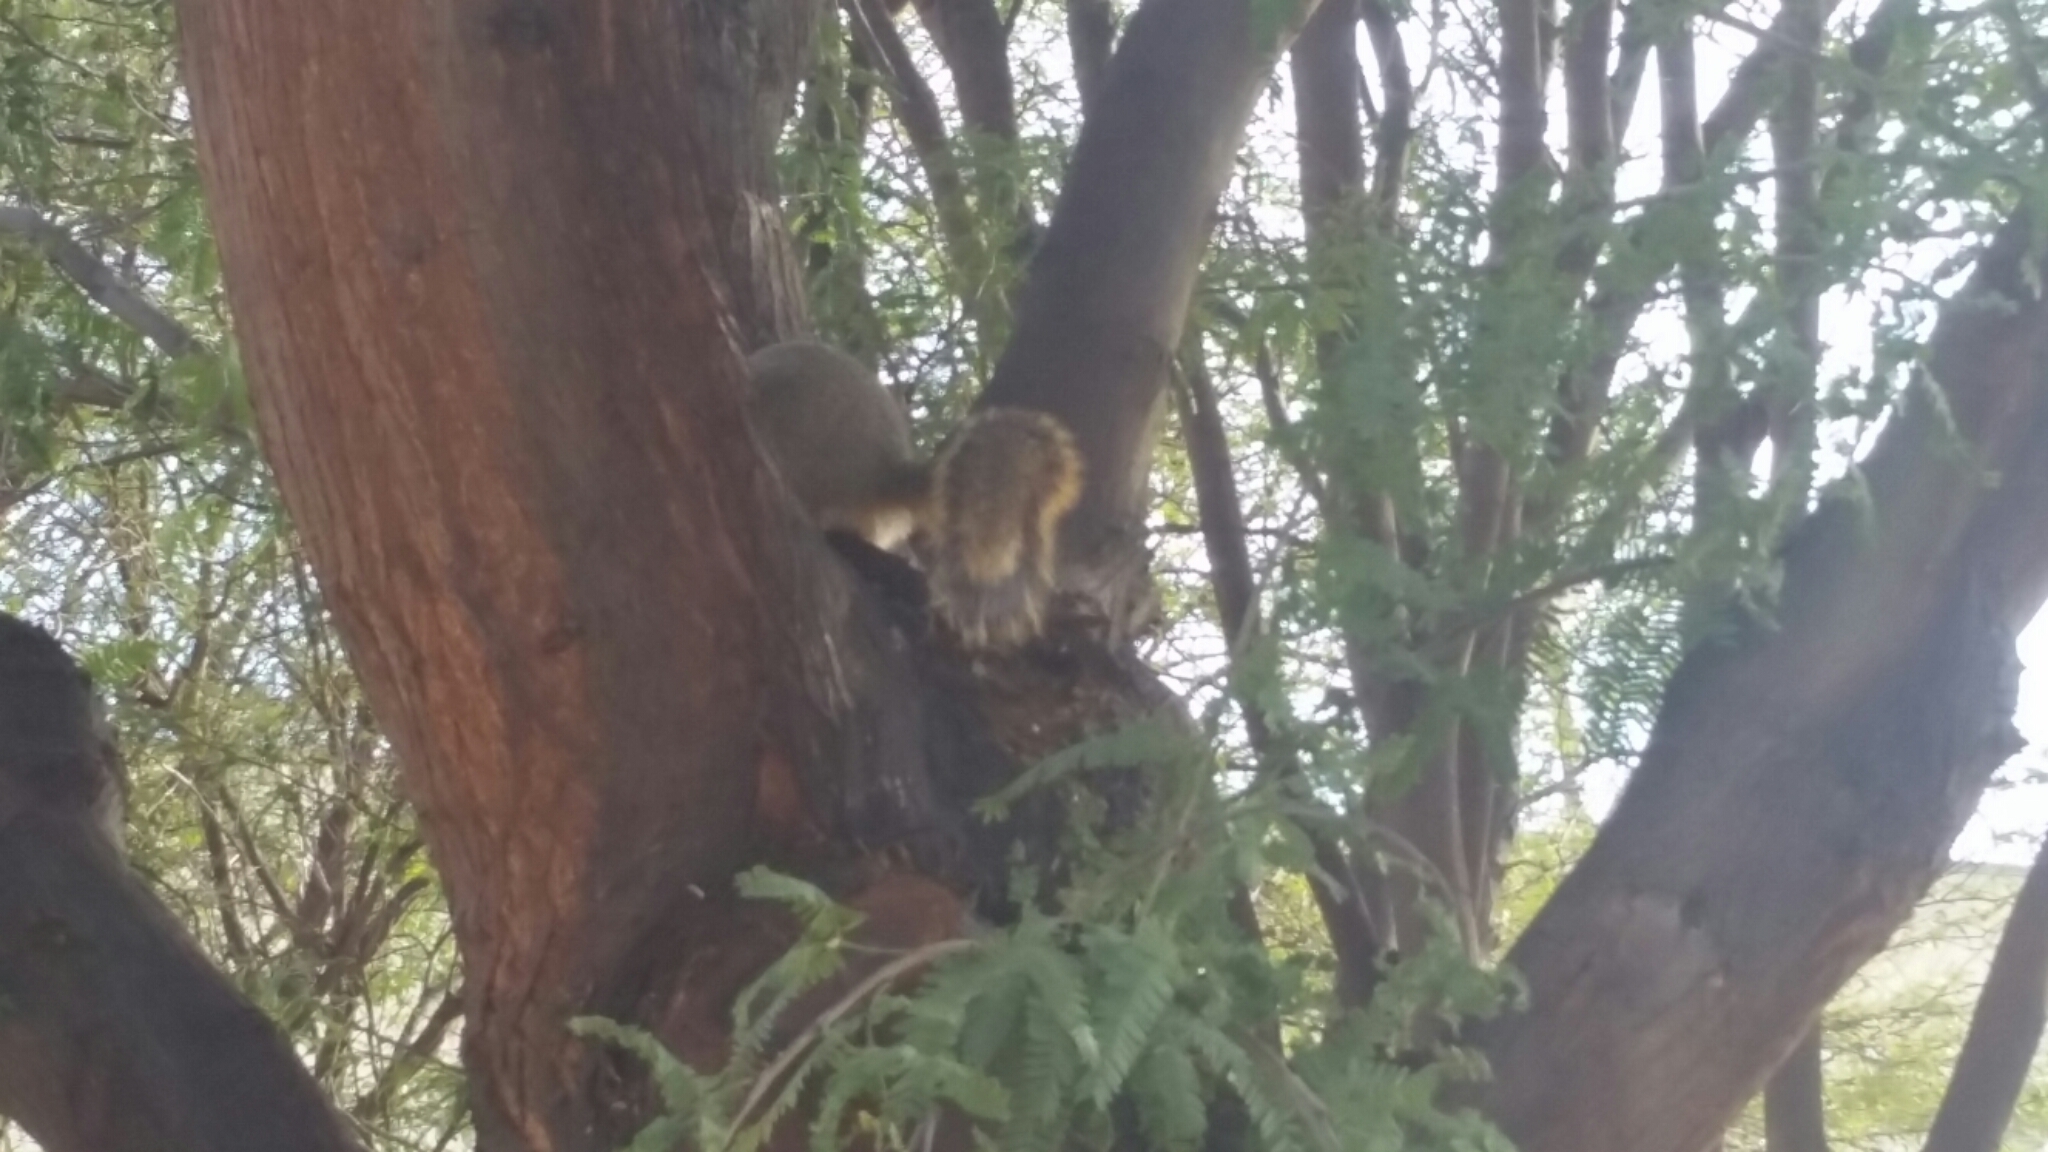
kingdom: Animalia
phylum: Chordata
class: Mammalia
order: Rodentia
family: Sciuridae
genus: Sciurus
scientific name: Sciurus niger
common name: Fox squirrel
